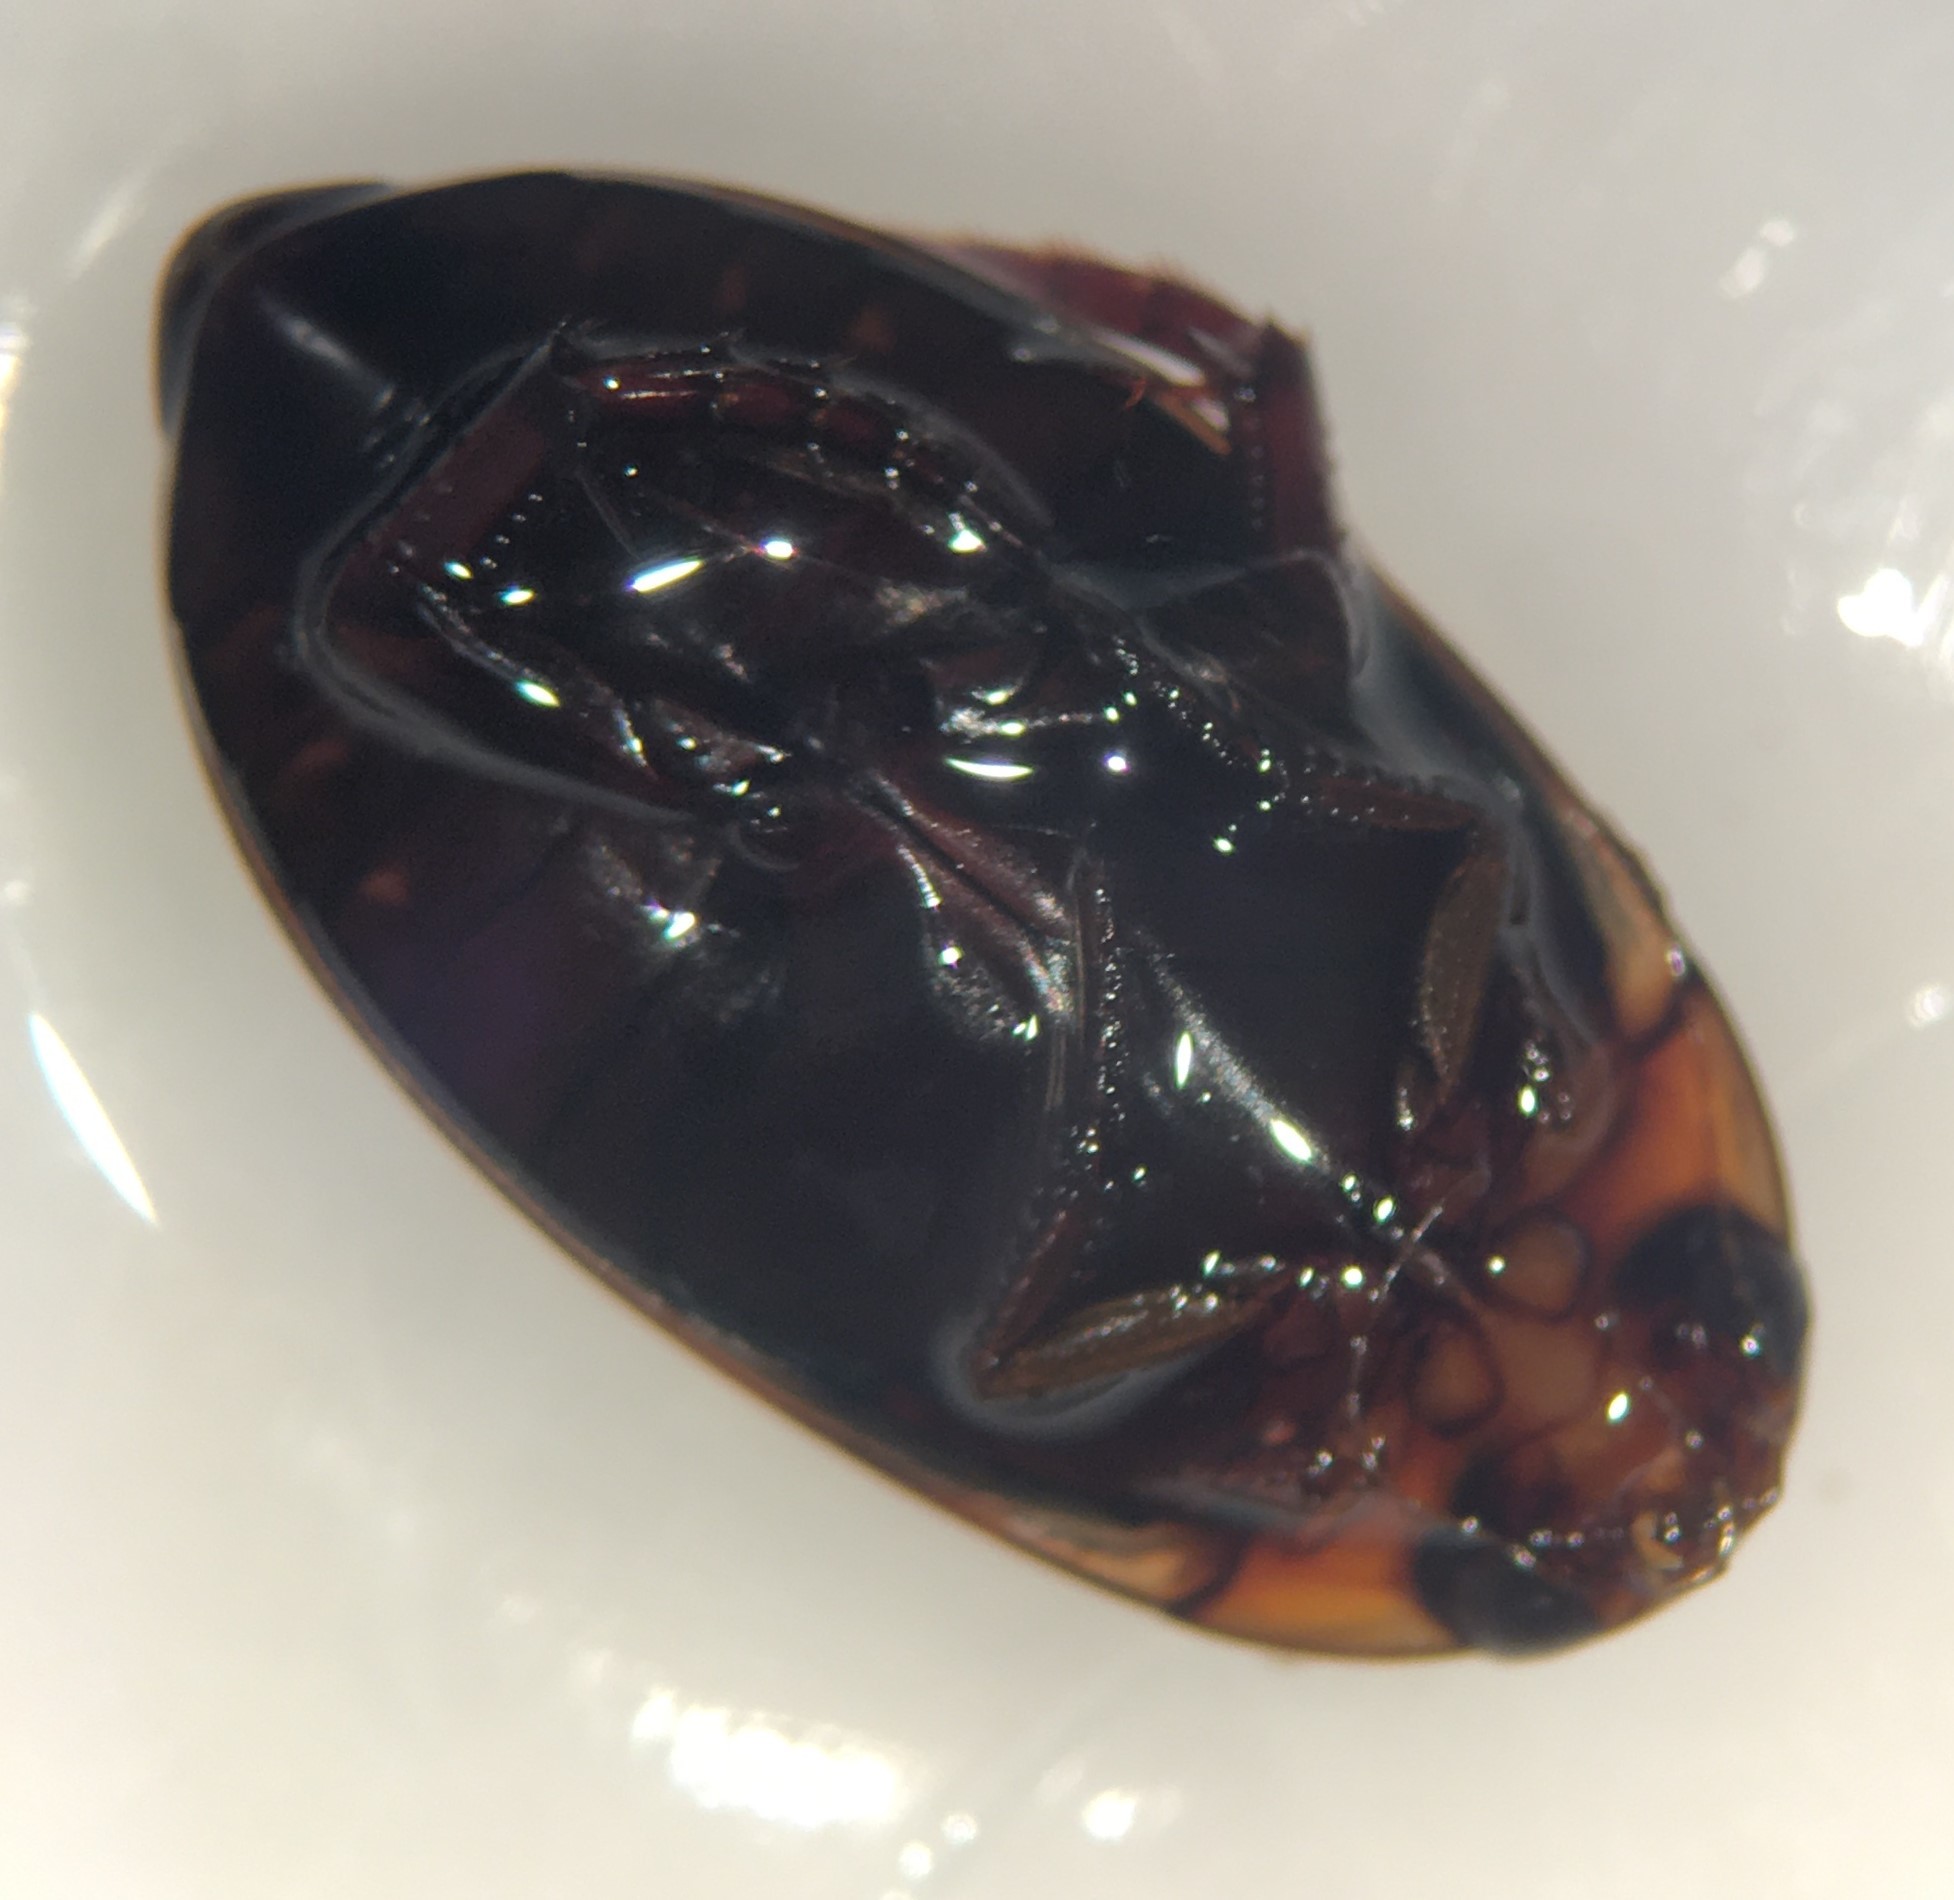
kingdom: Animalia
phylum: Arthropoda
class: Insecta
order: Coleoptera
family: Dytiscidae
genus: Hydaticus
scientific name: Hydaticus bimarginatus
